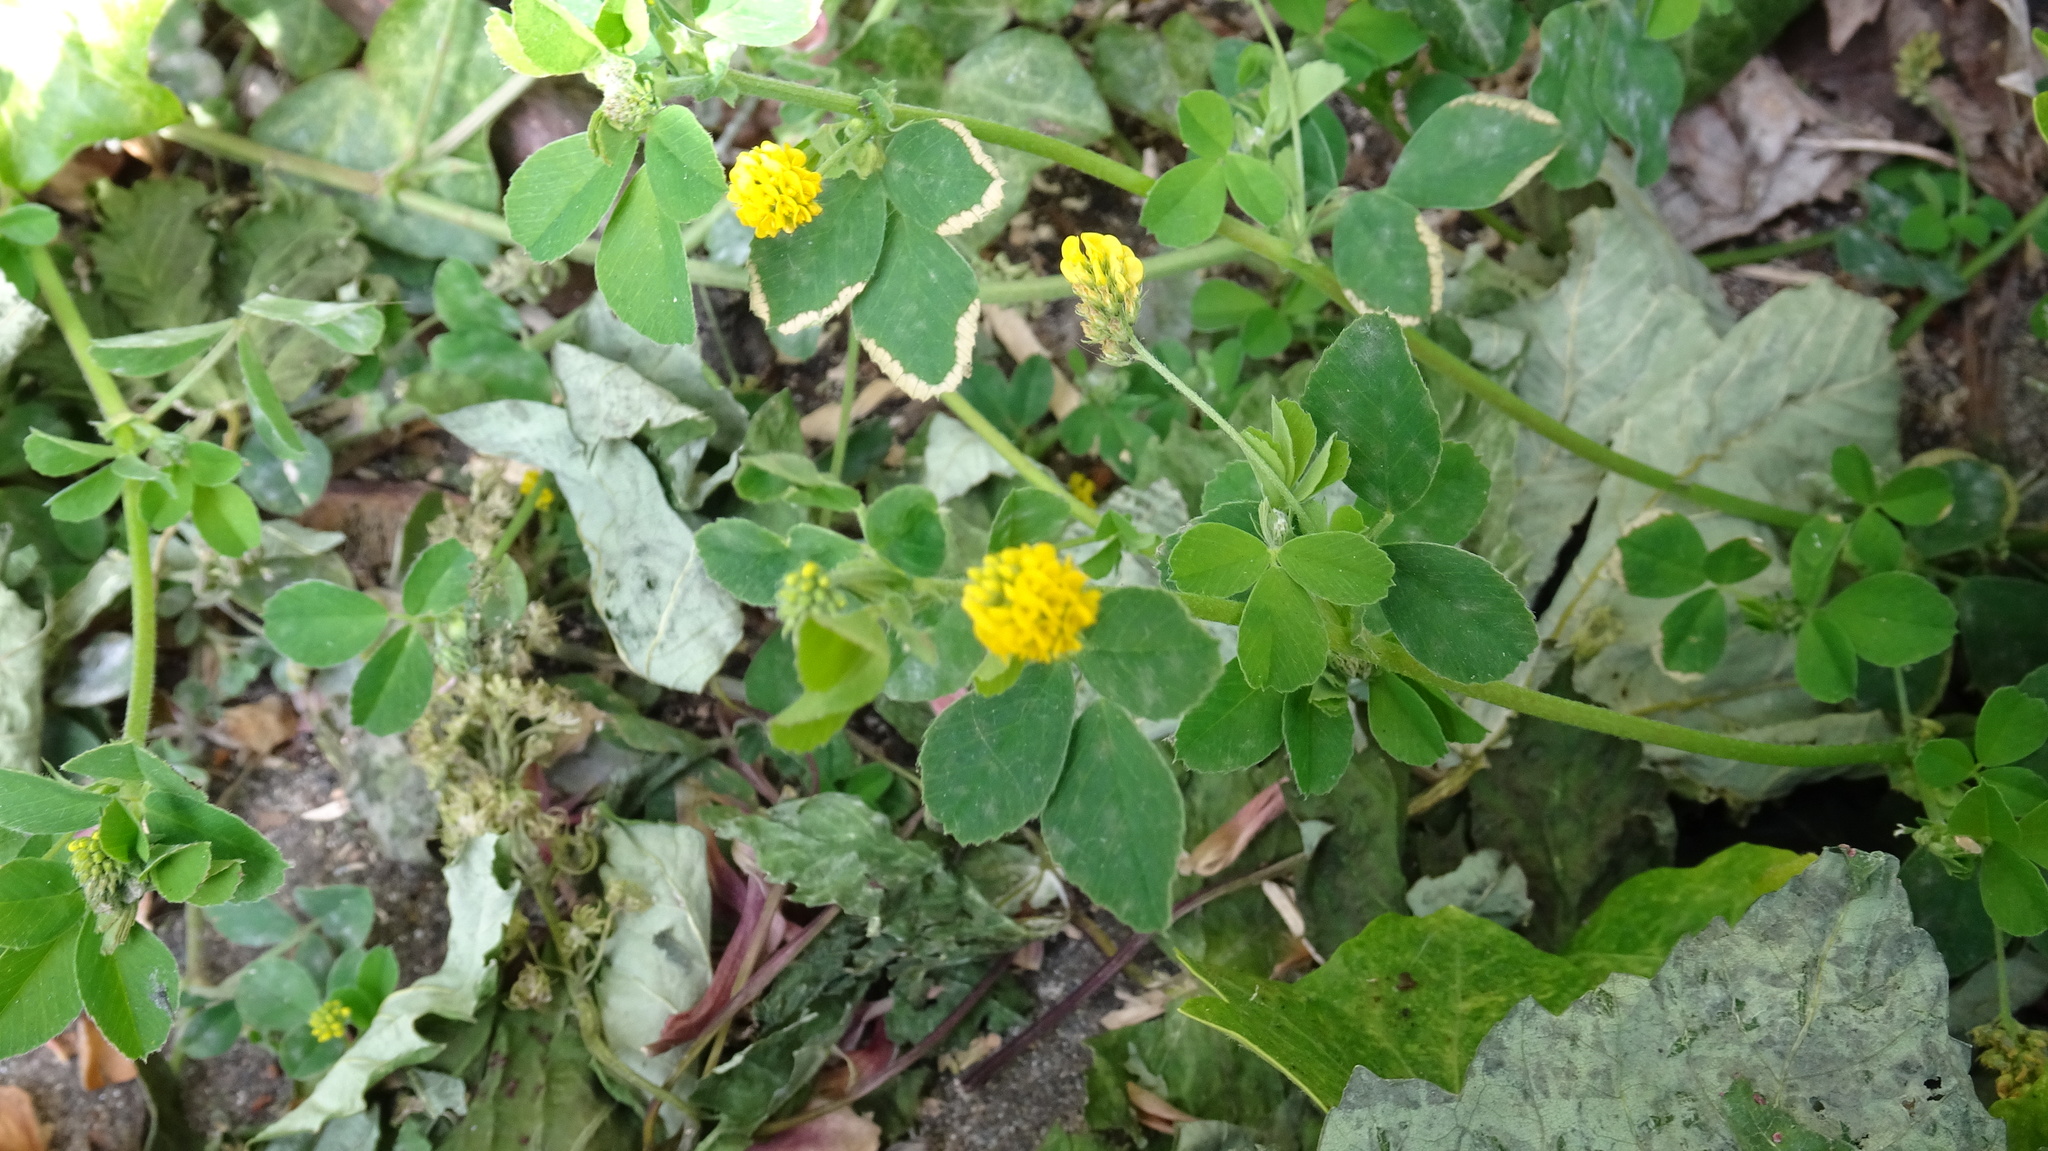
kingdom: Plantae
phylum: Tracheophyta
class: Magnoliopsida
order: Fabales
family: Fabaceae
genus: Medicago
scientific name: Medicago lupulina
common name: Black medick
